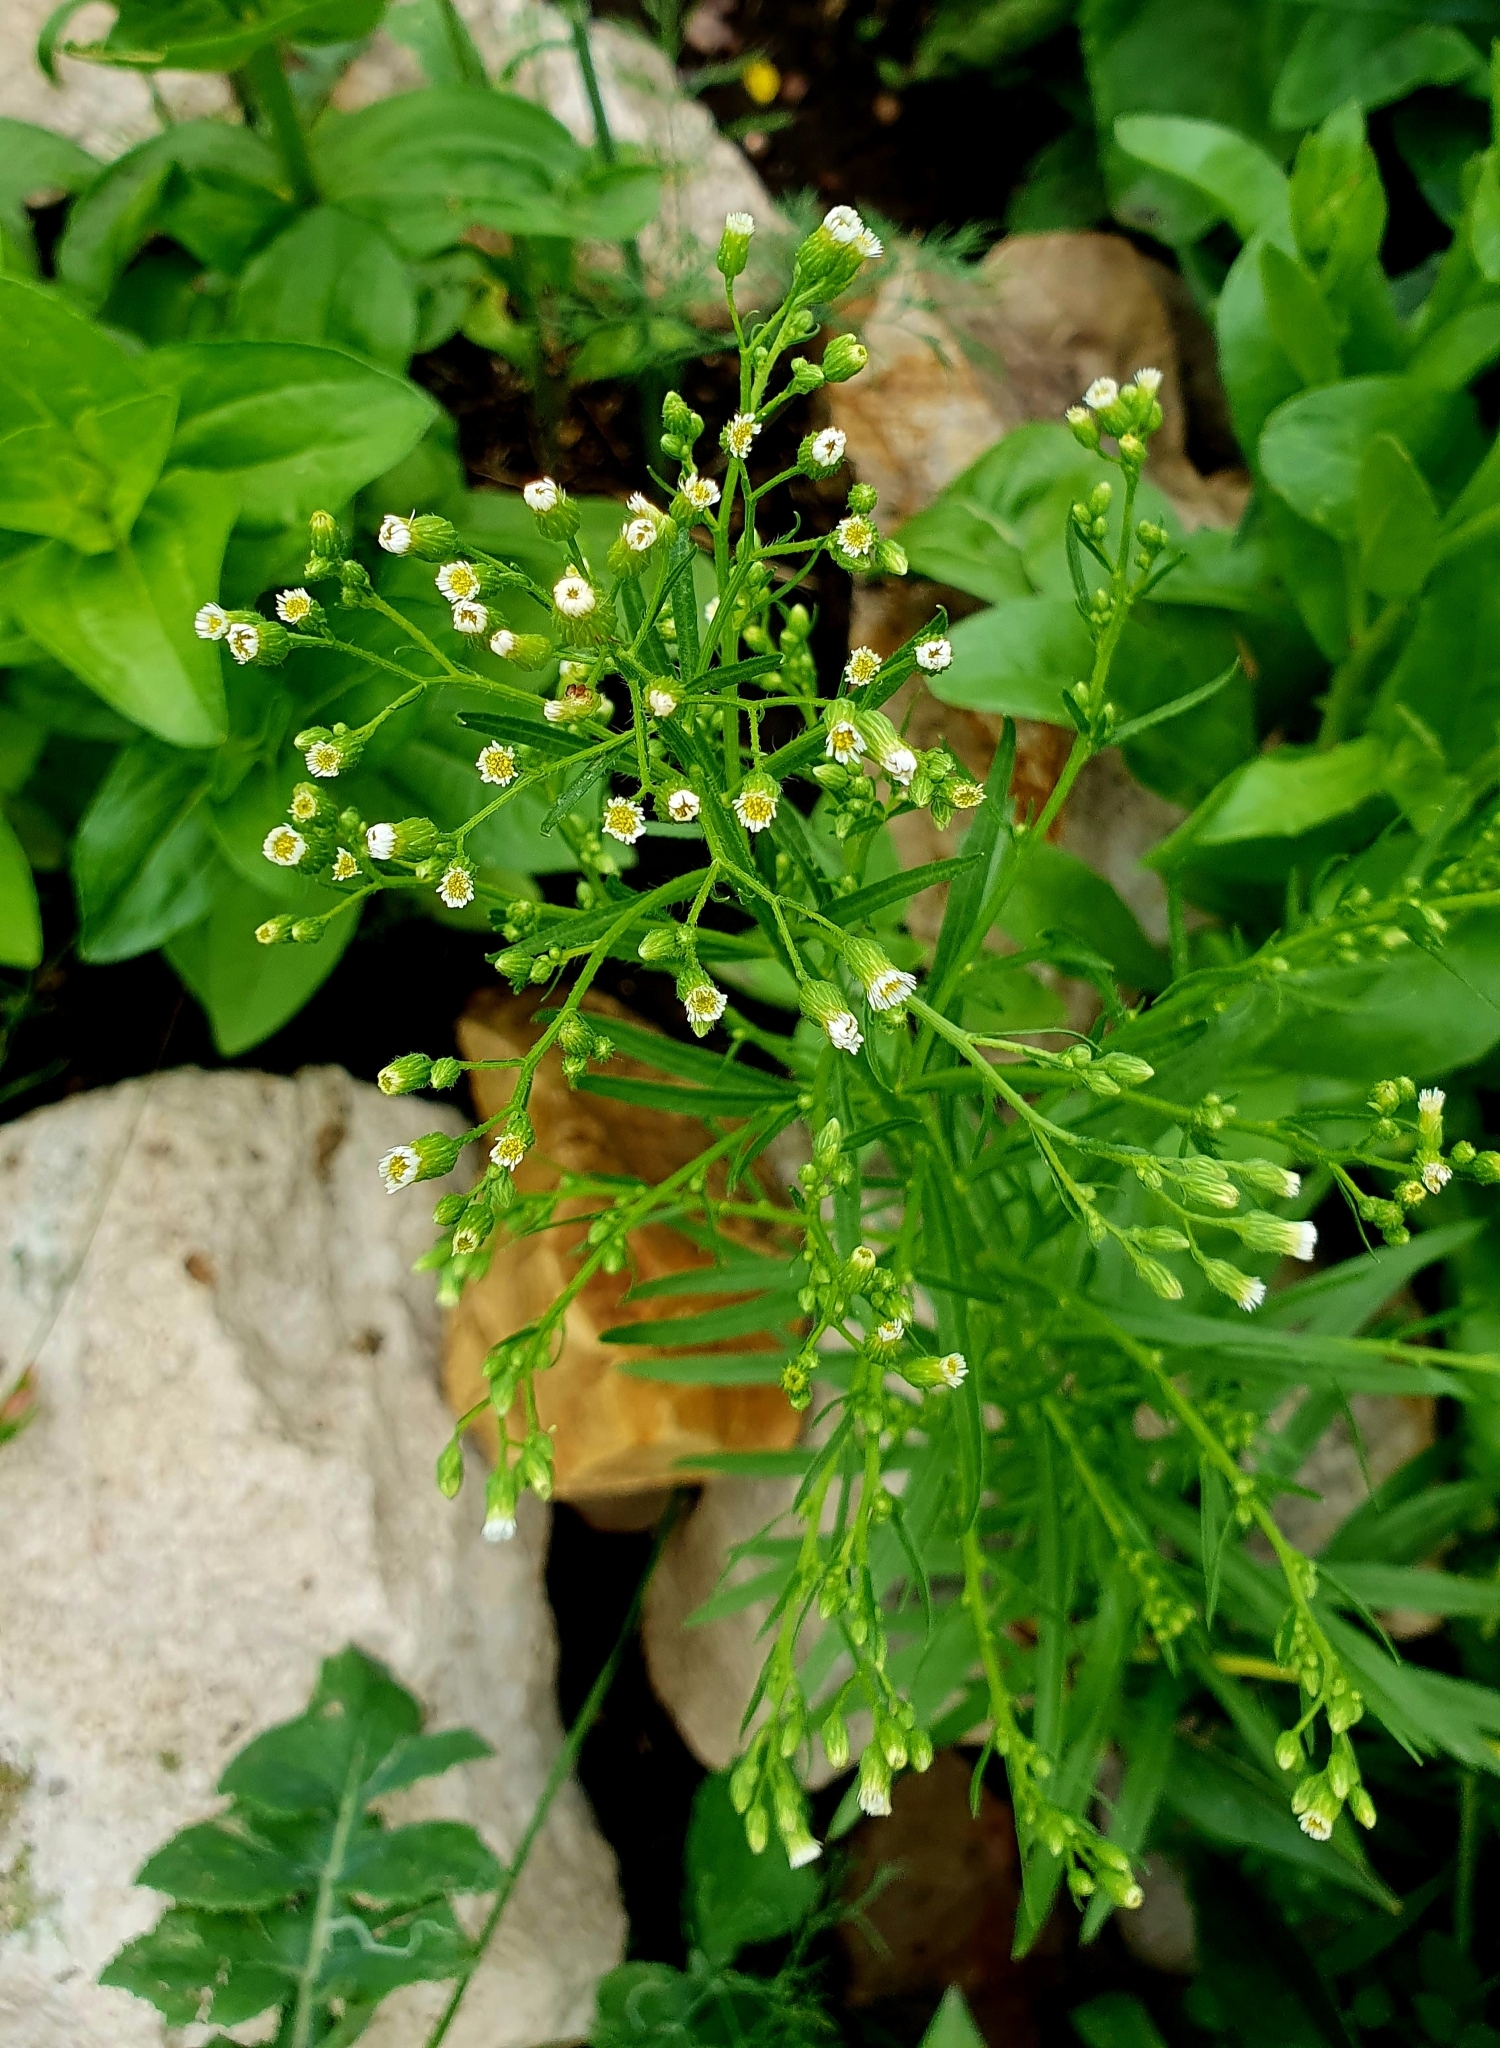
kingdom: Plantae
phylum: Tracheophyta
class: Magnoliopsida
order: Asterales
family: Asteraceae
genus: Erigeron
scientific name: Erigeron canadensis
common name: Canadian fleabane
